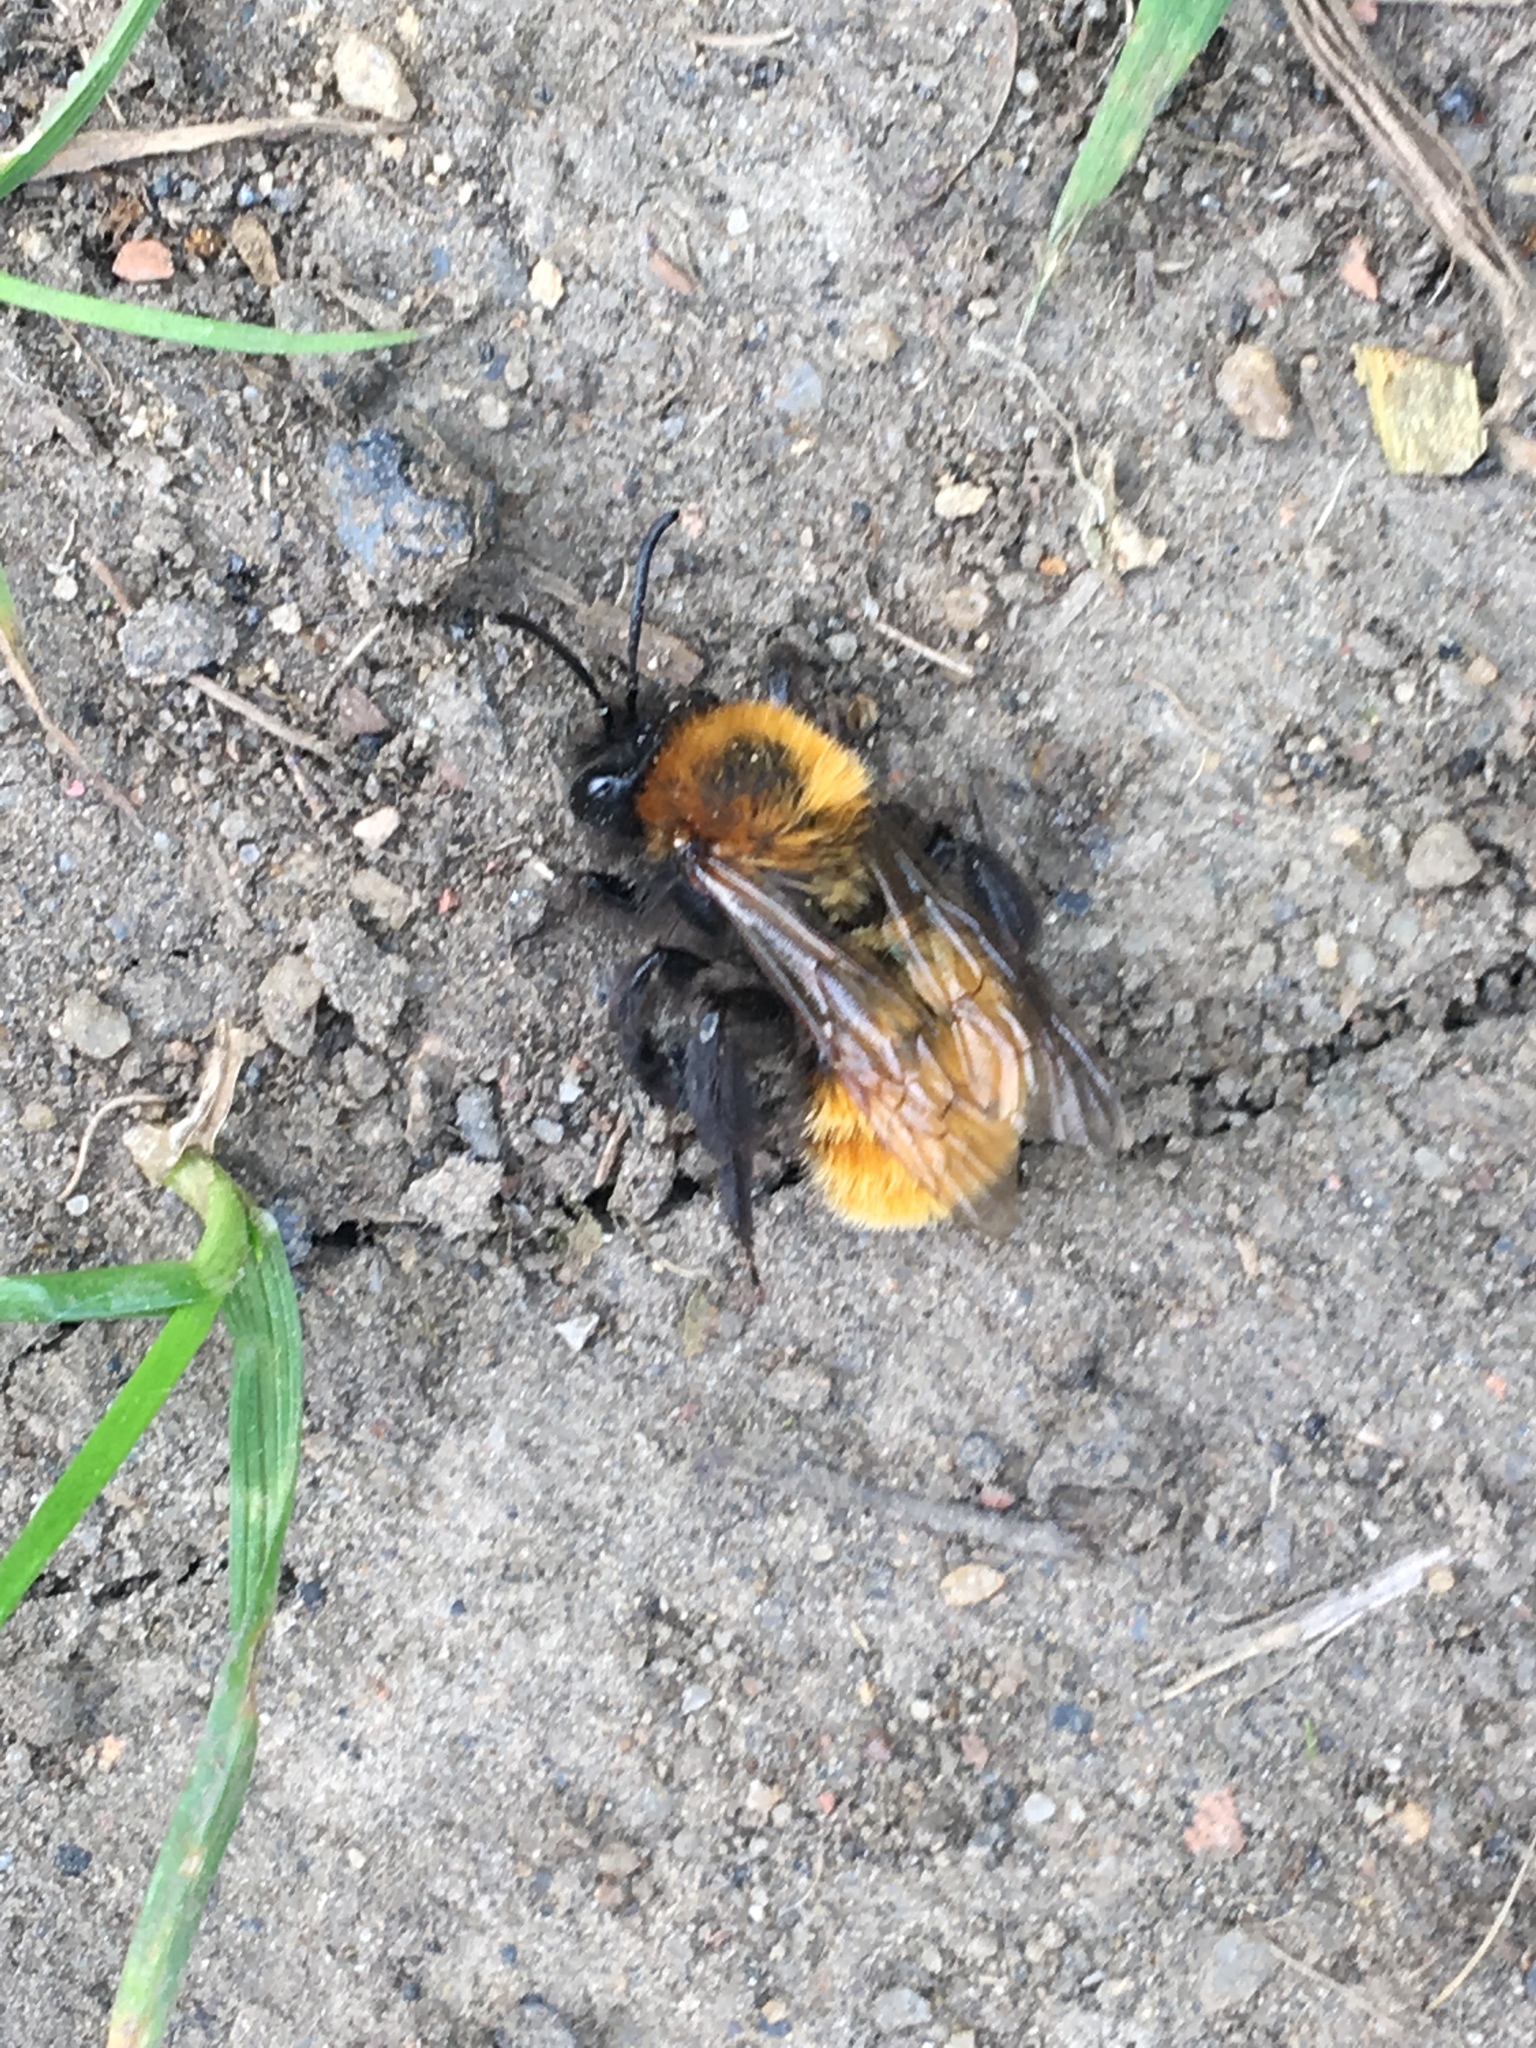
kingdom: Animalia
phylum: Arthropoda
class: Insecta
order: Hymenoptera
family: Andrenidae
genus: Andrena
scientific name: Andrena fulva
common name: Tawny mining bee
